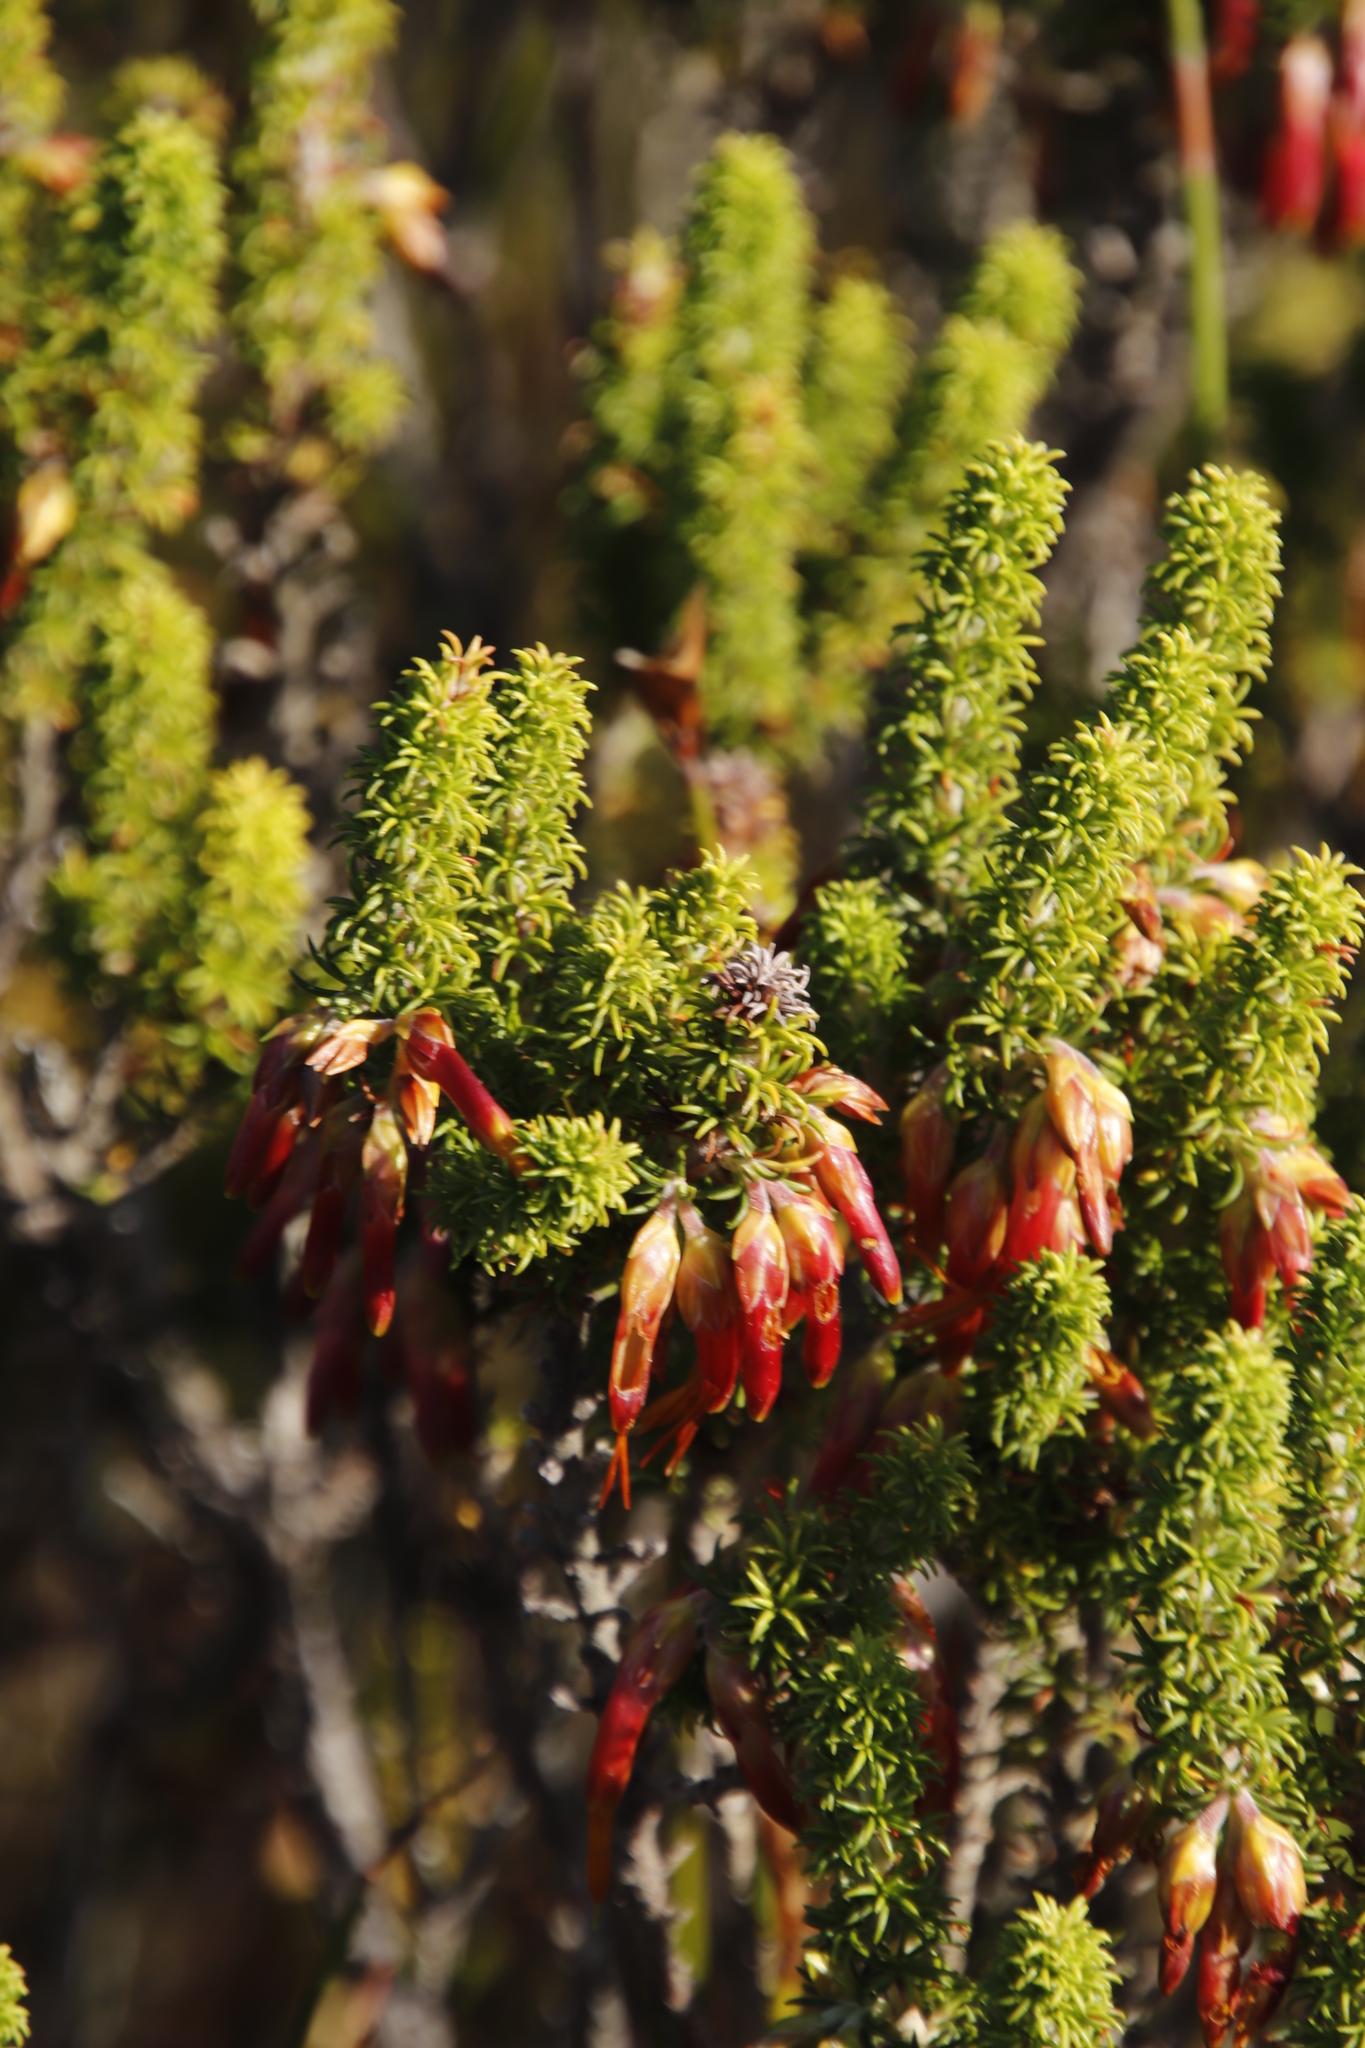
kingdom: Plantae
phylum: Tracheophyta
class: Magnoliopsida
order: Ericales
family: Ericaceae
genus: Erica
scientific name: Erica coccinea
